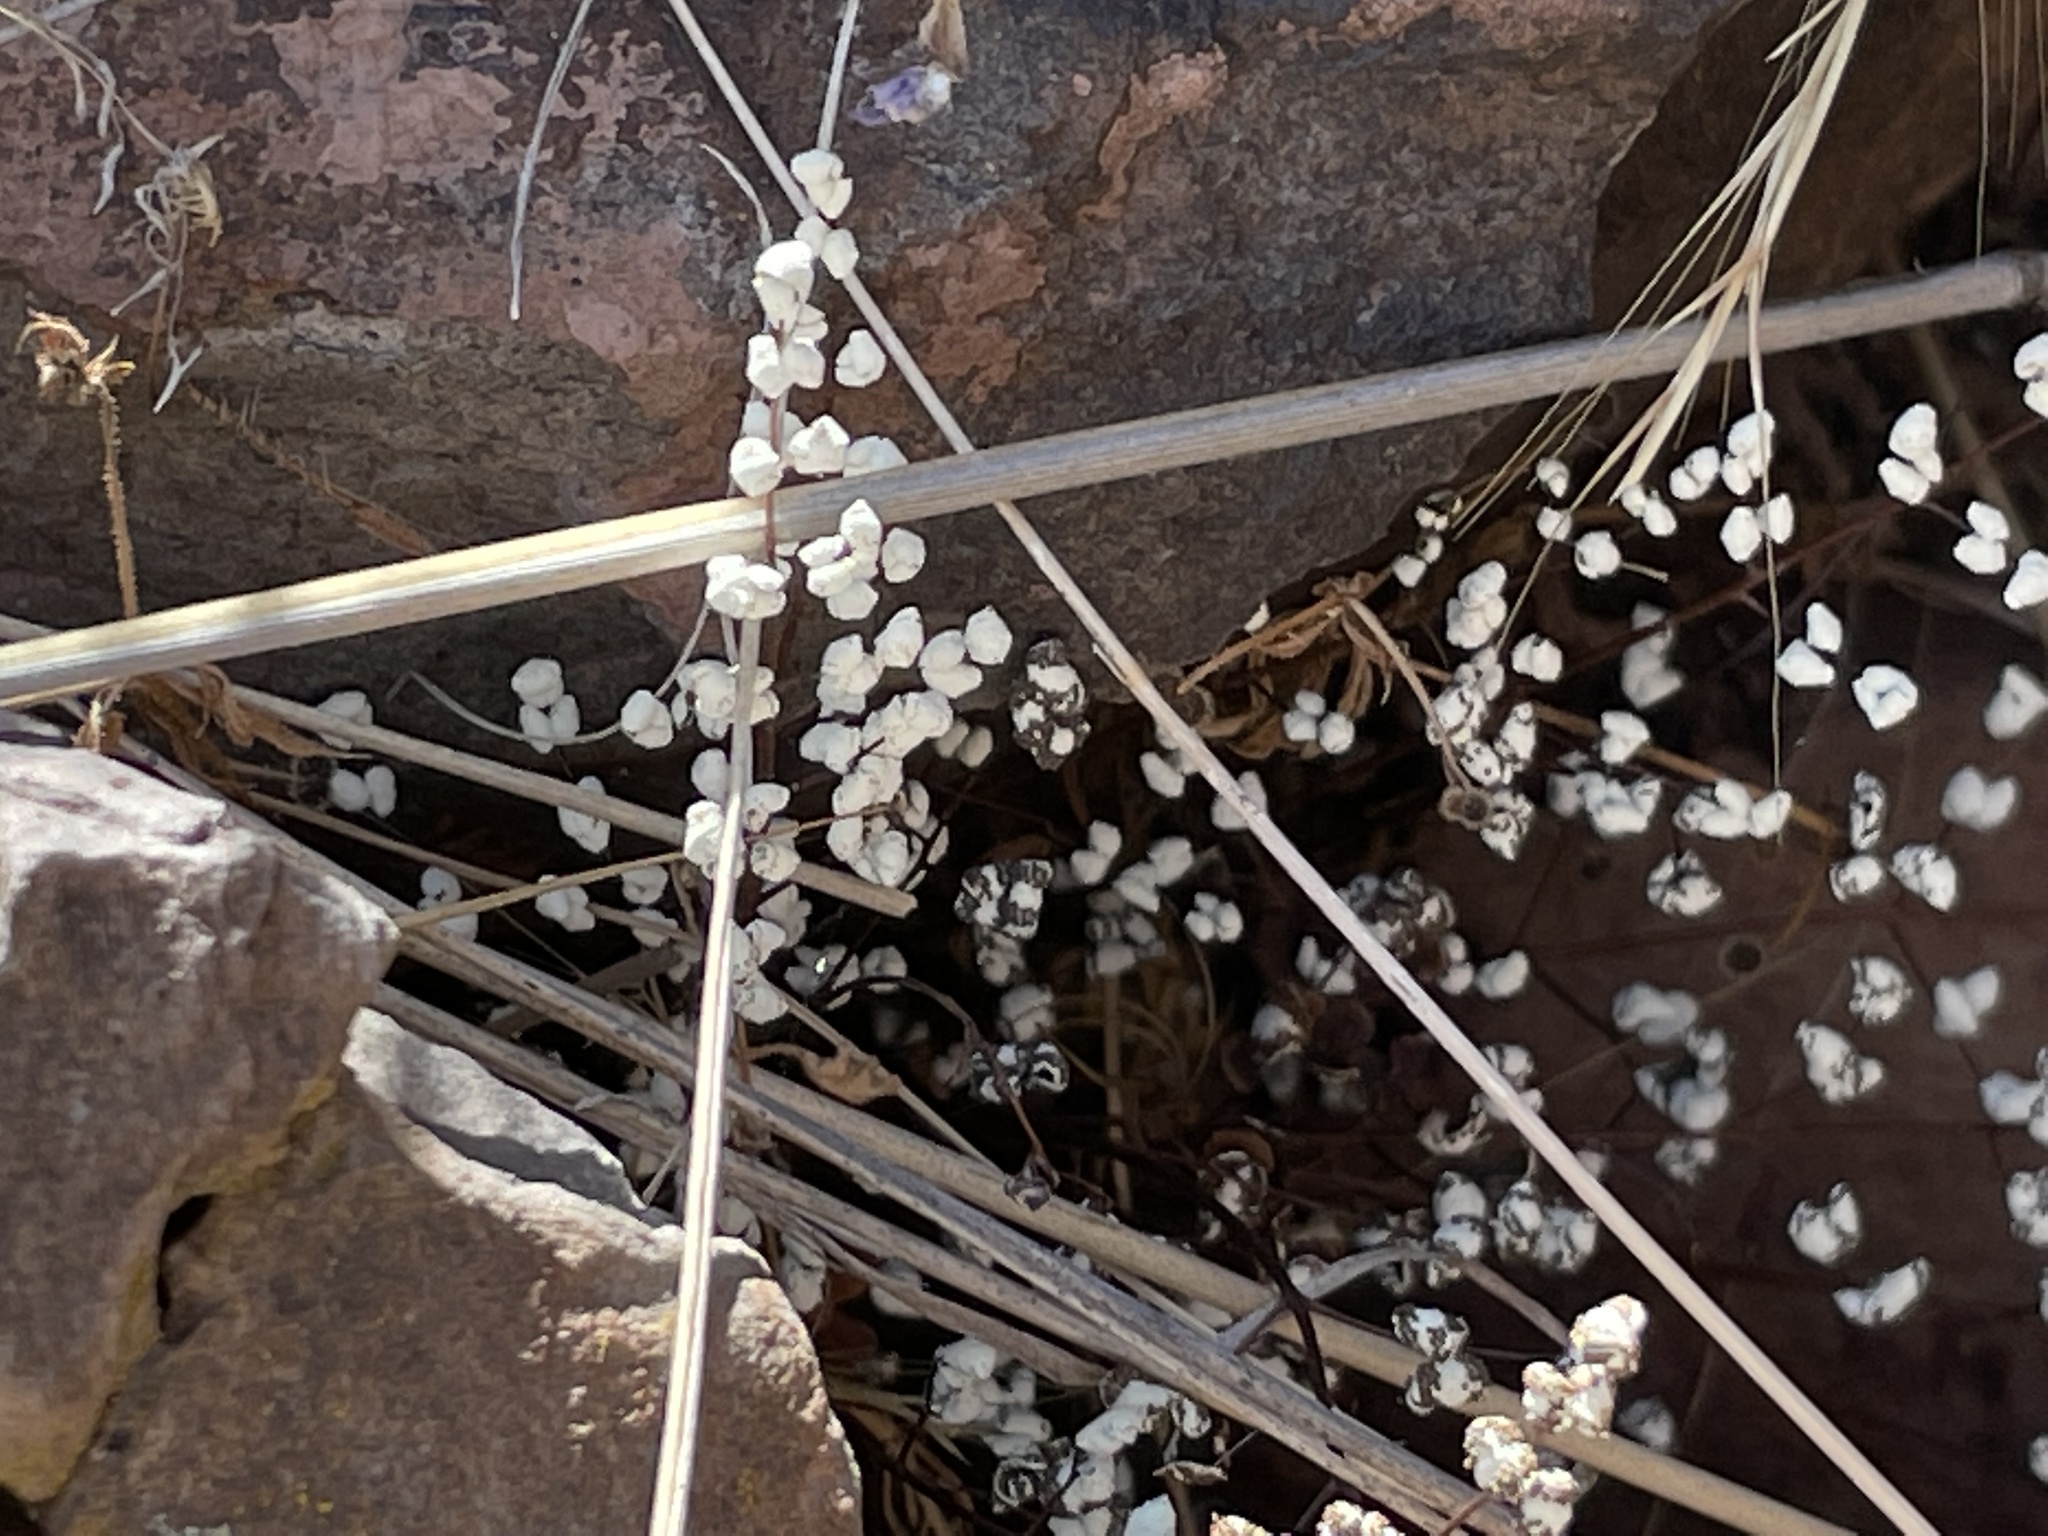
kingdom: Plantae
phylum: Tracheophyta
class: Polypodiopsida
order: Polypodiales
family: Pteridaceae
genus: Argyrochosma
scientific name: Argyrochosma nivea
